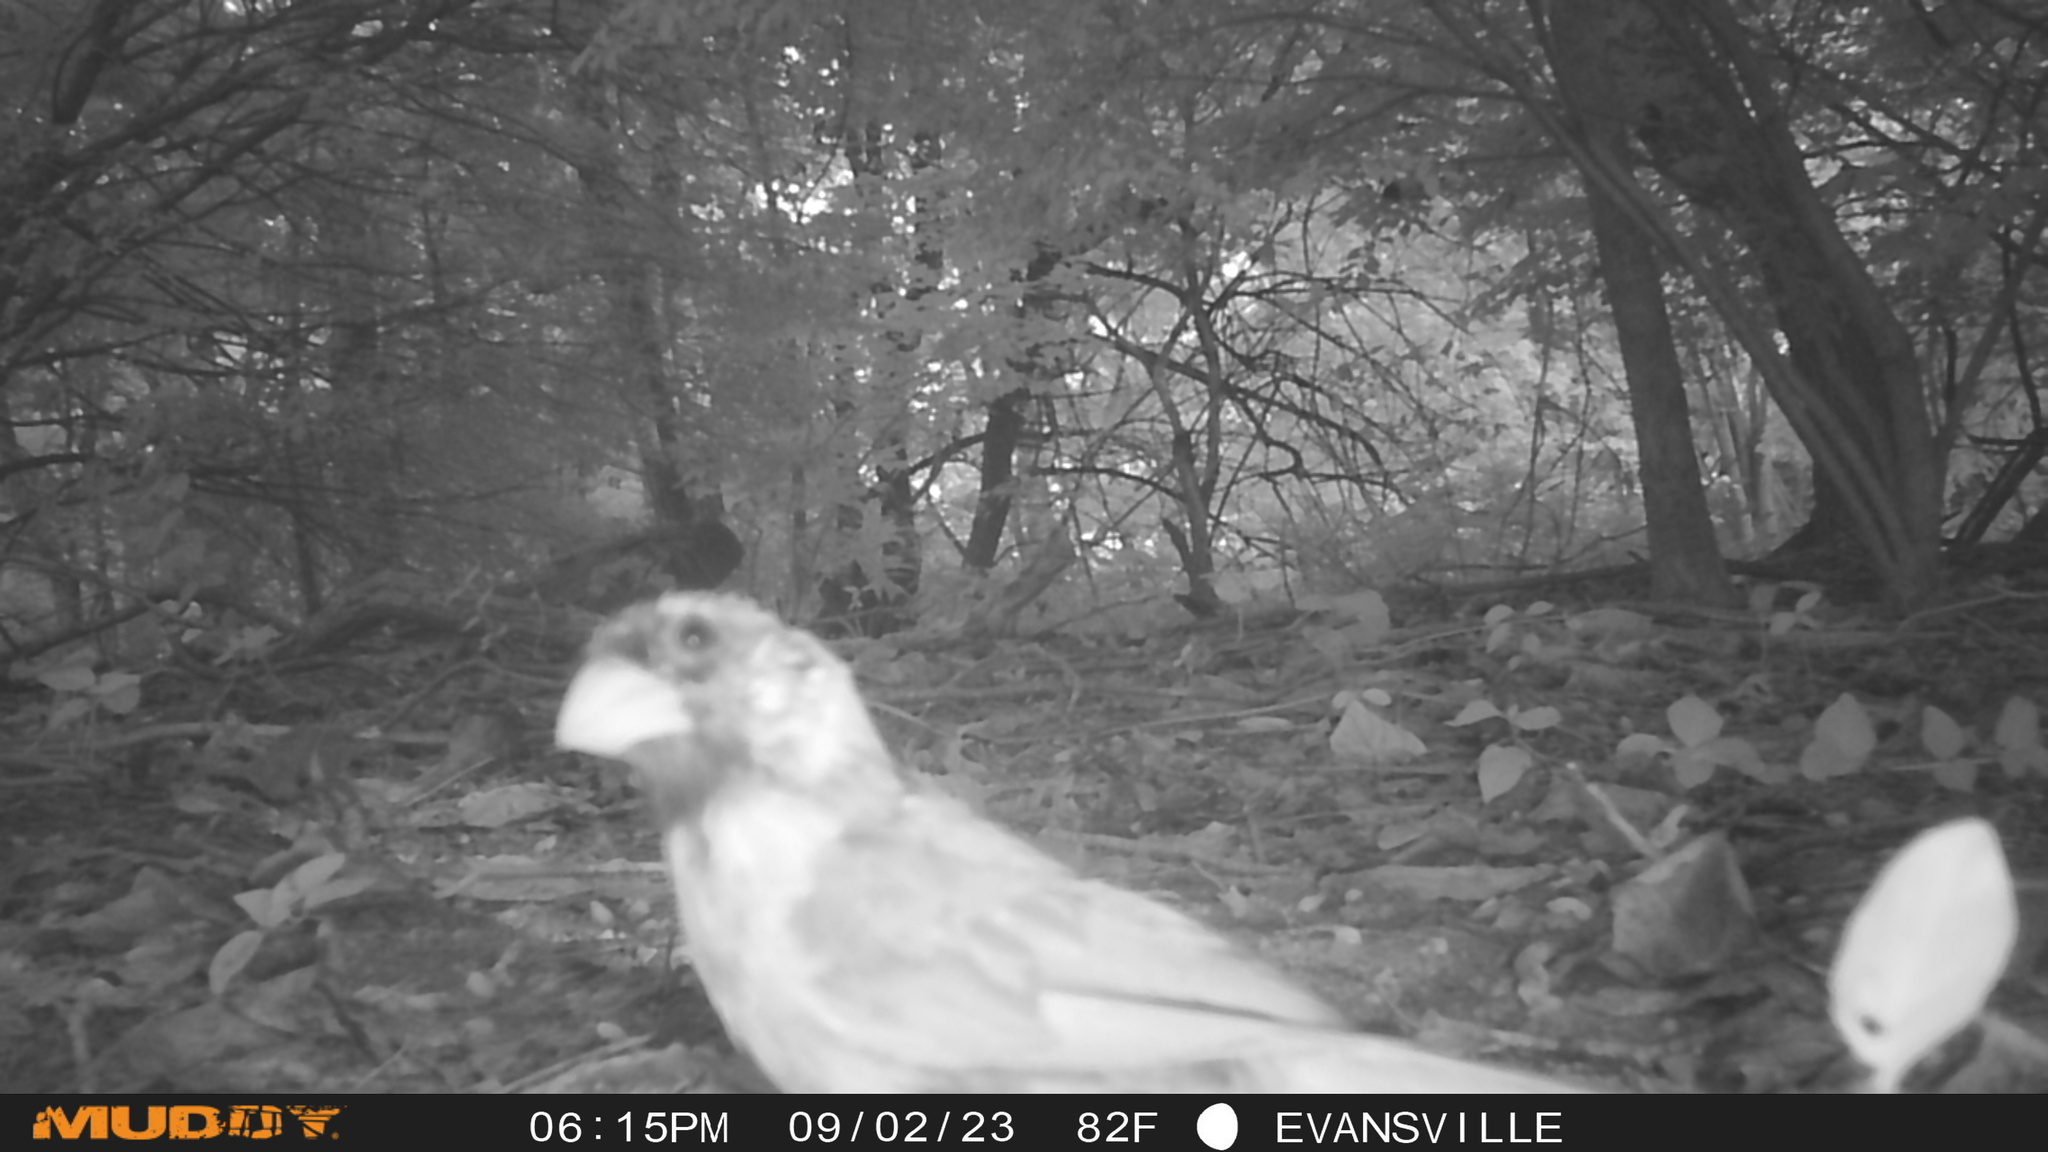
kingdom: Animalia
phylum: Chordata
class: Aves
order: Passeriformes
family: Cardinalidae
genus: Cardinalis
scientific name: Cardinalis cardinalis
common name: Northern cardinal
